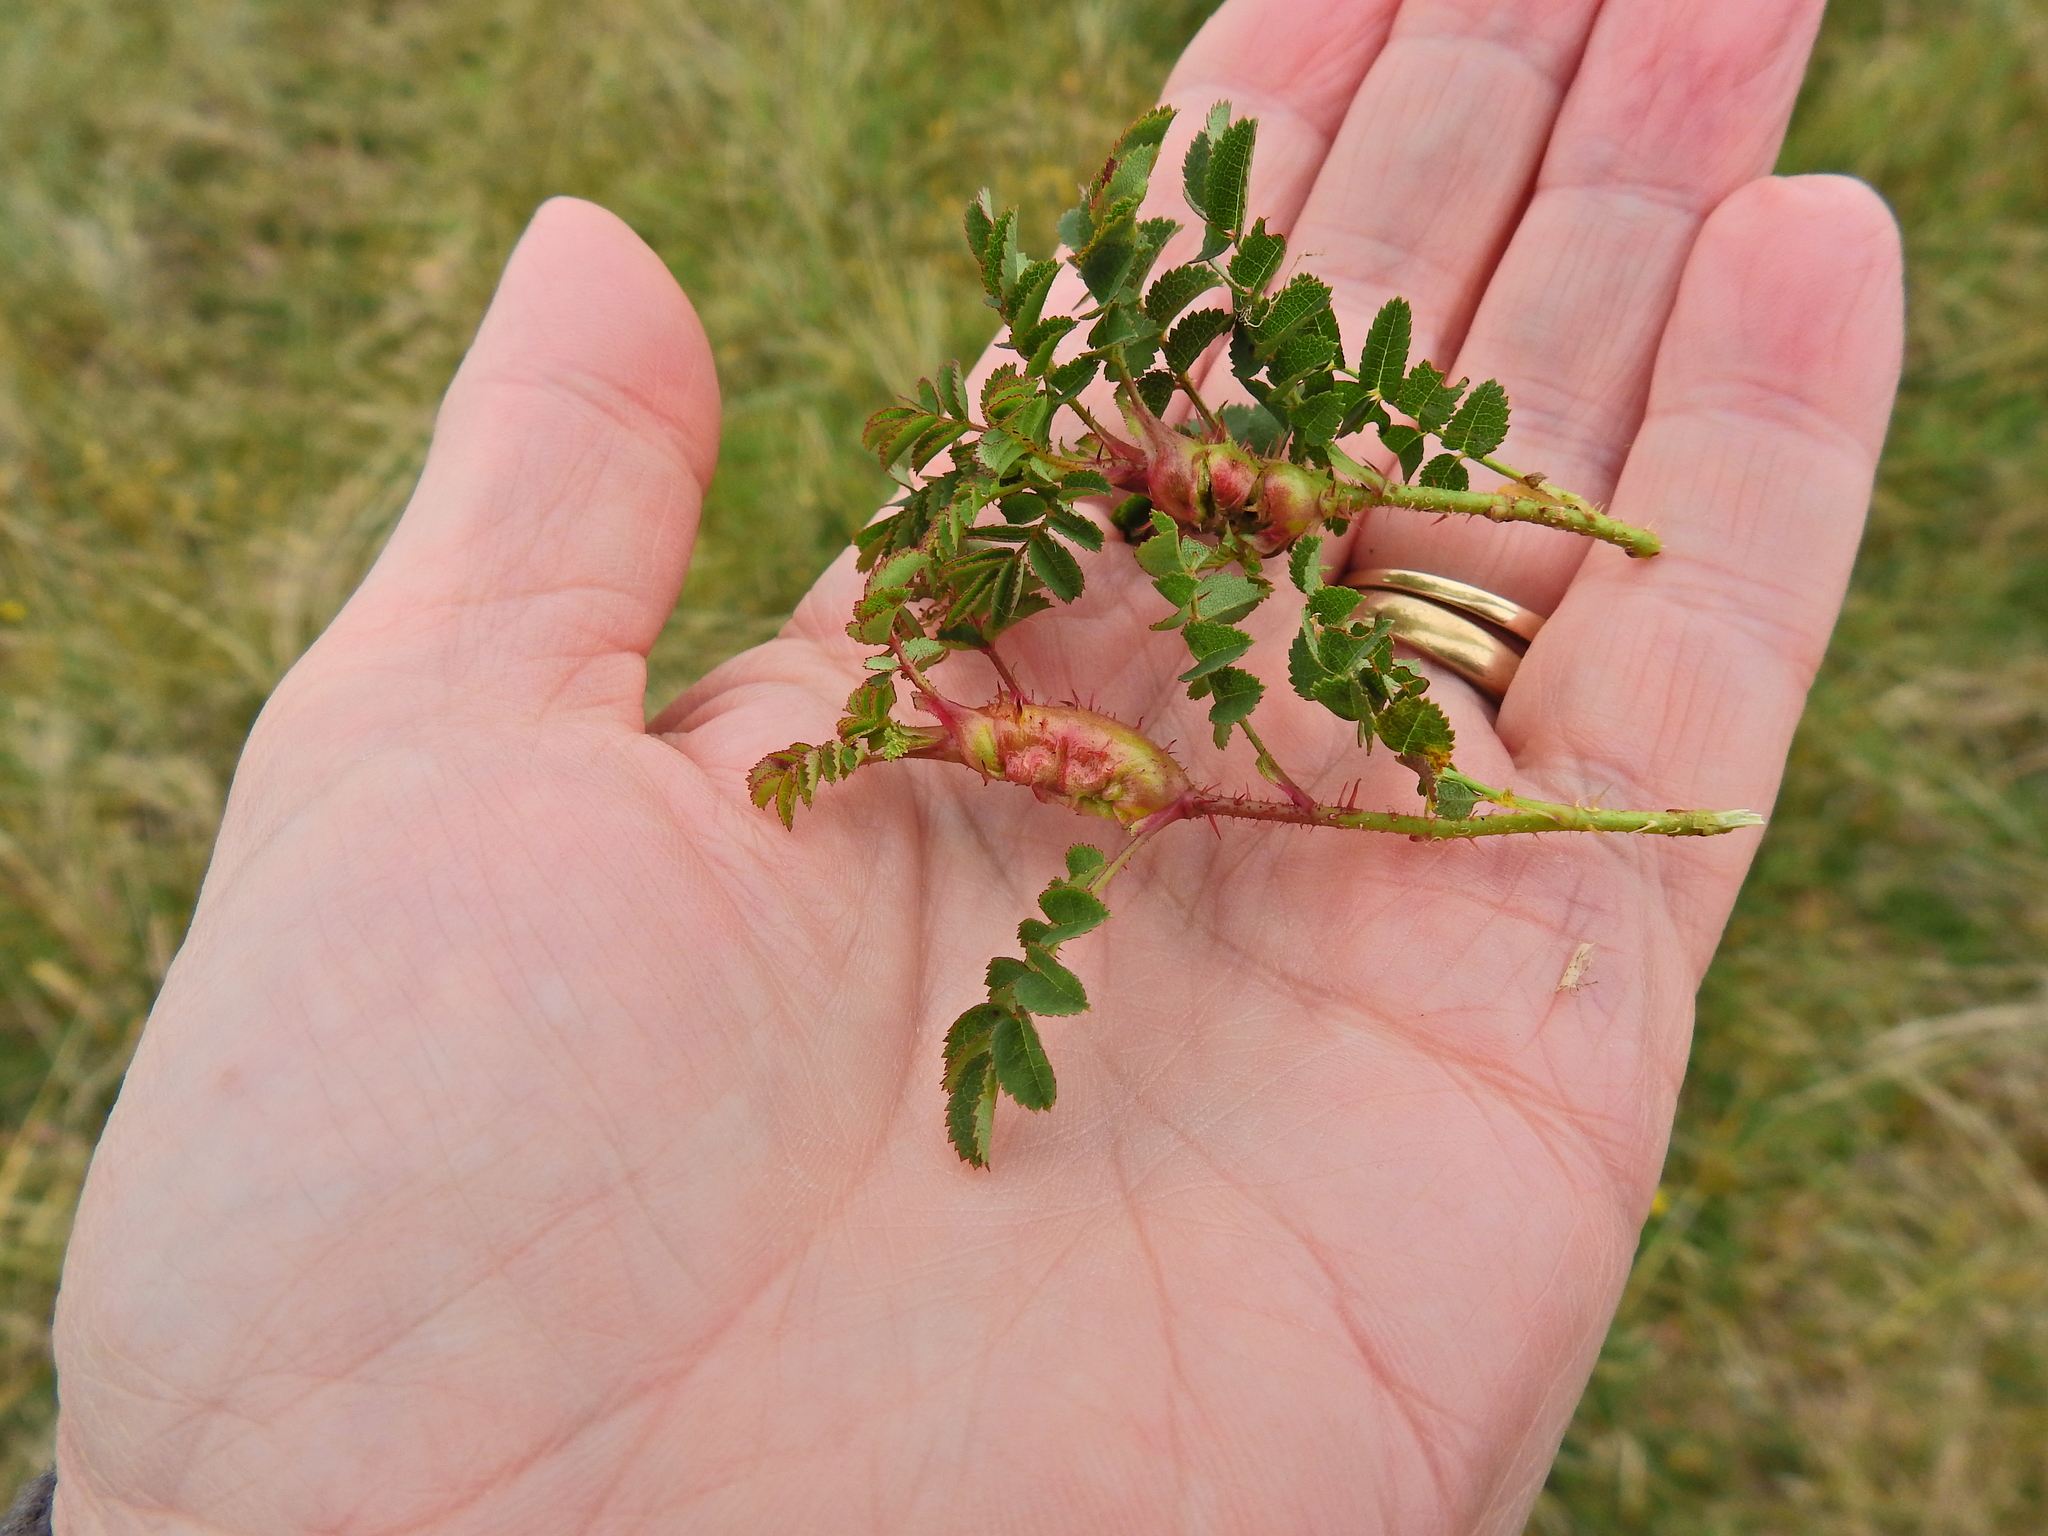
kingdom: Animalia
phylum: Arthropoda
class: Insecta
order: Hymenoptera
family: Cynipidae
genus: Diplolepis
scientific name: Diplolepis spinosissimae
